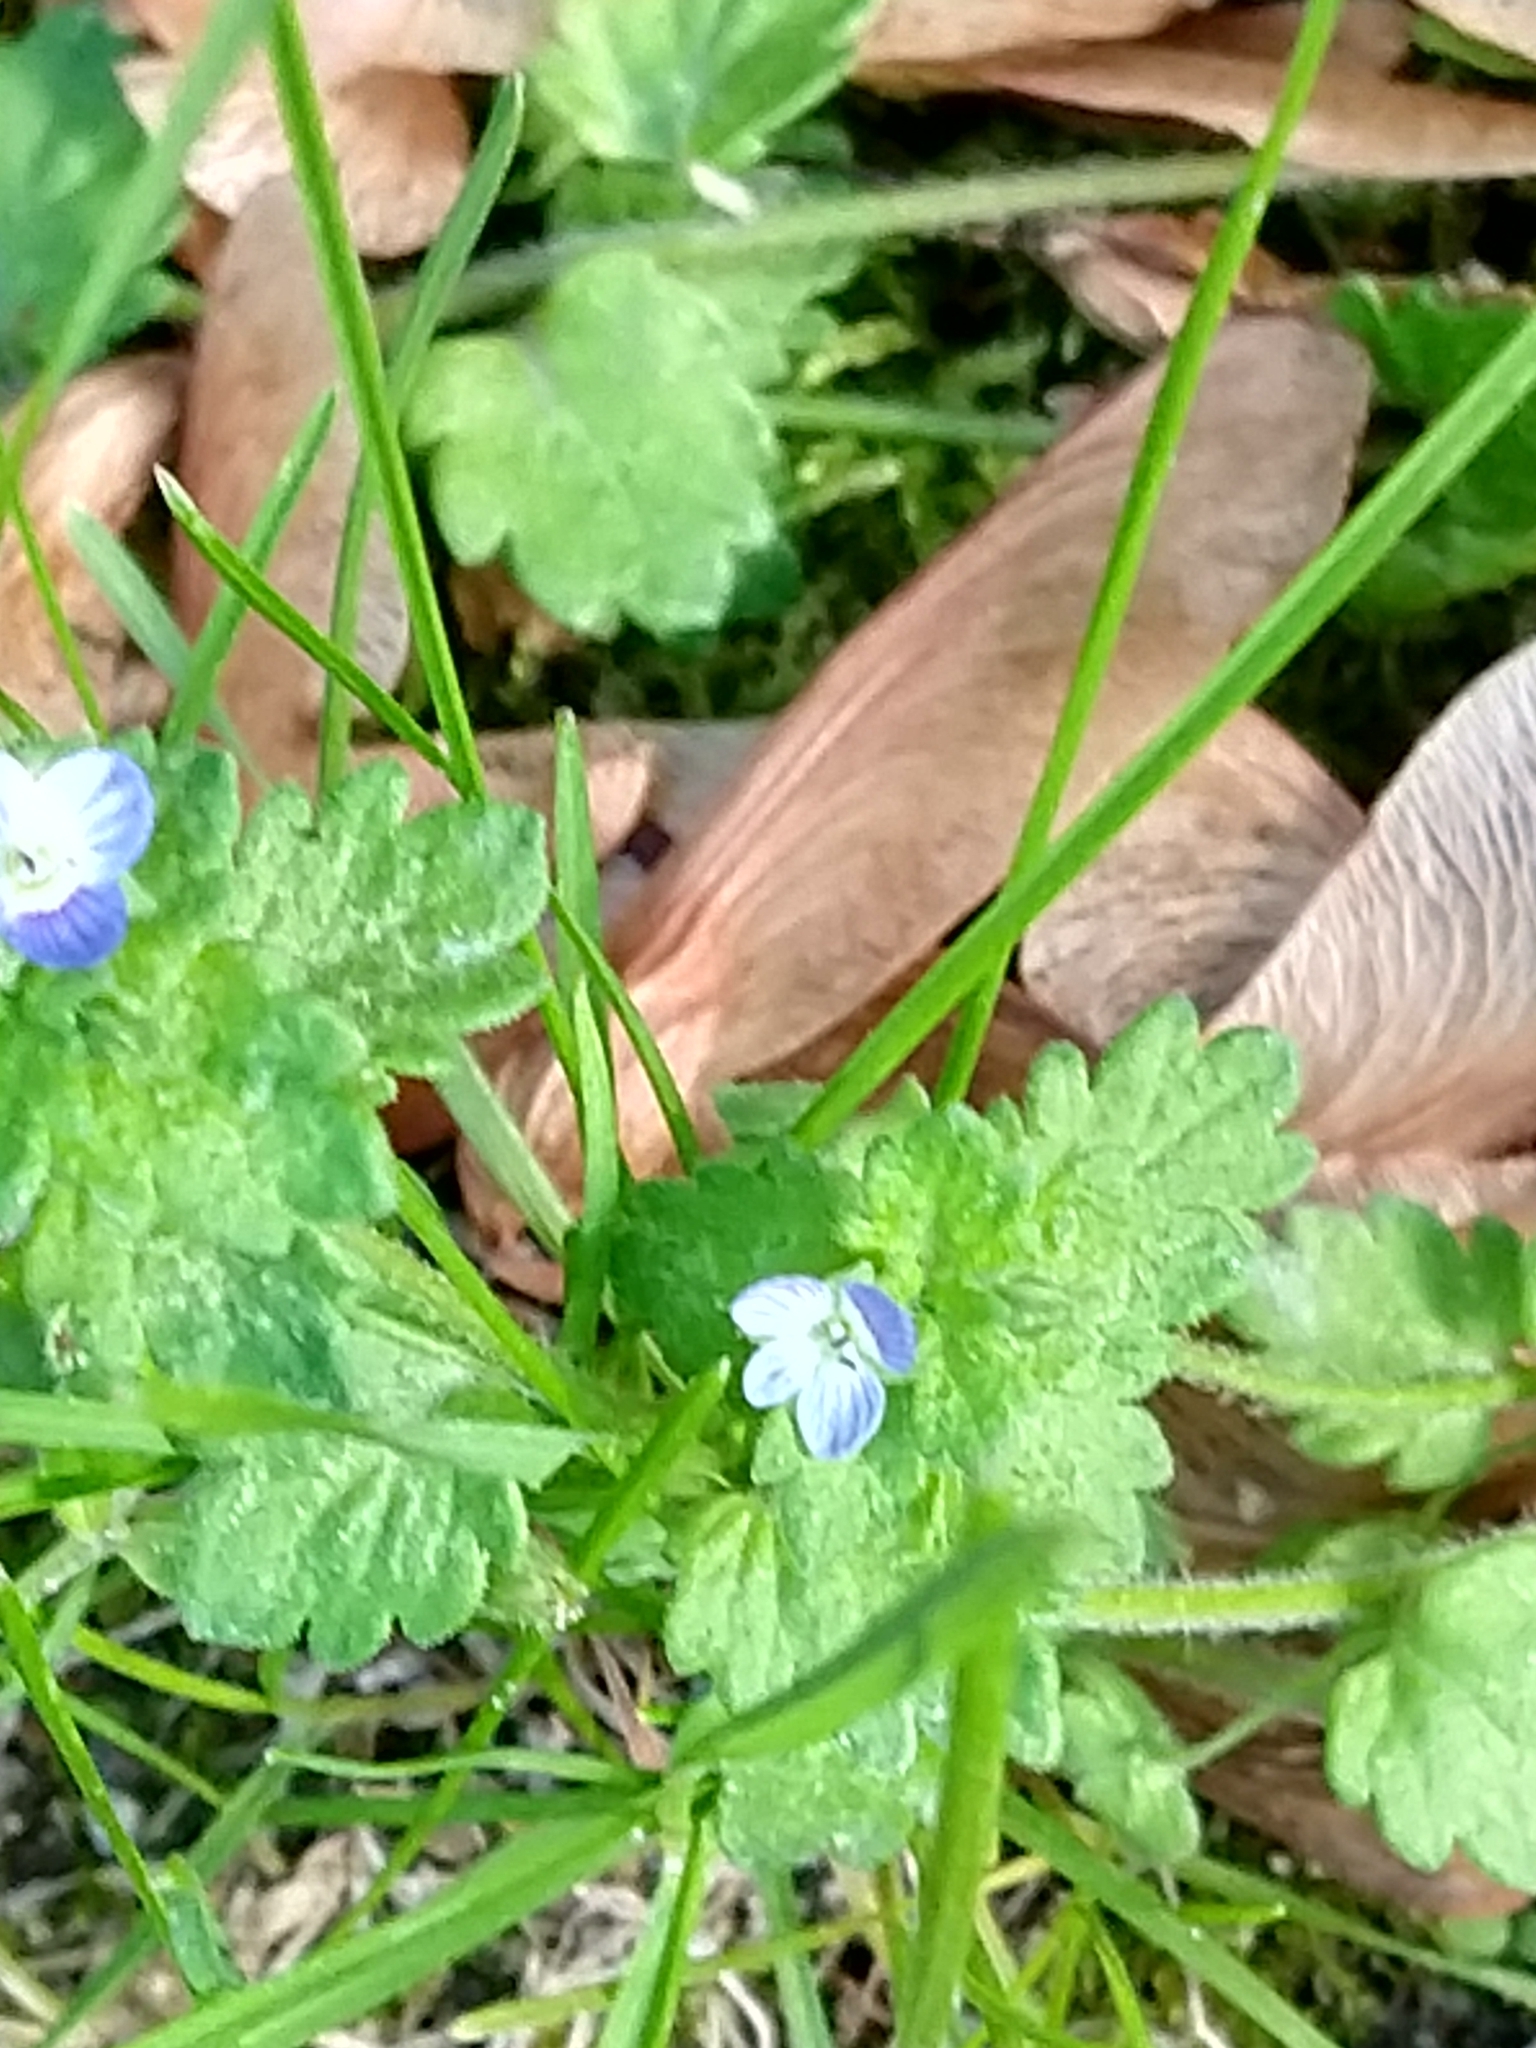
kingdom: Plantae
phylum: Tracheophyta
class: Magnoliopsida
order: Lamiales
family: Plantaginaceae
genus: Veronica
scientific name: Veronica persica
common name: Common field-speedwell
